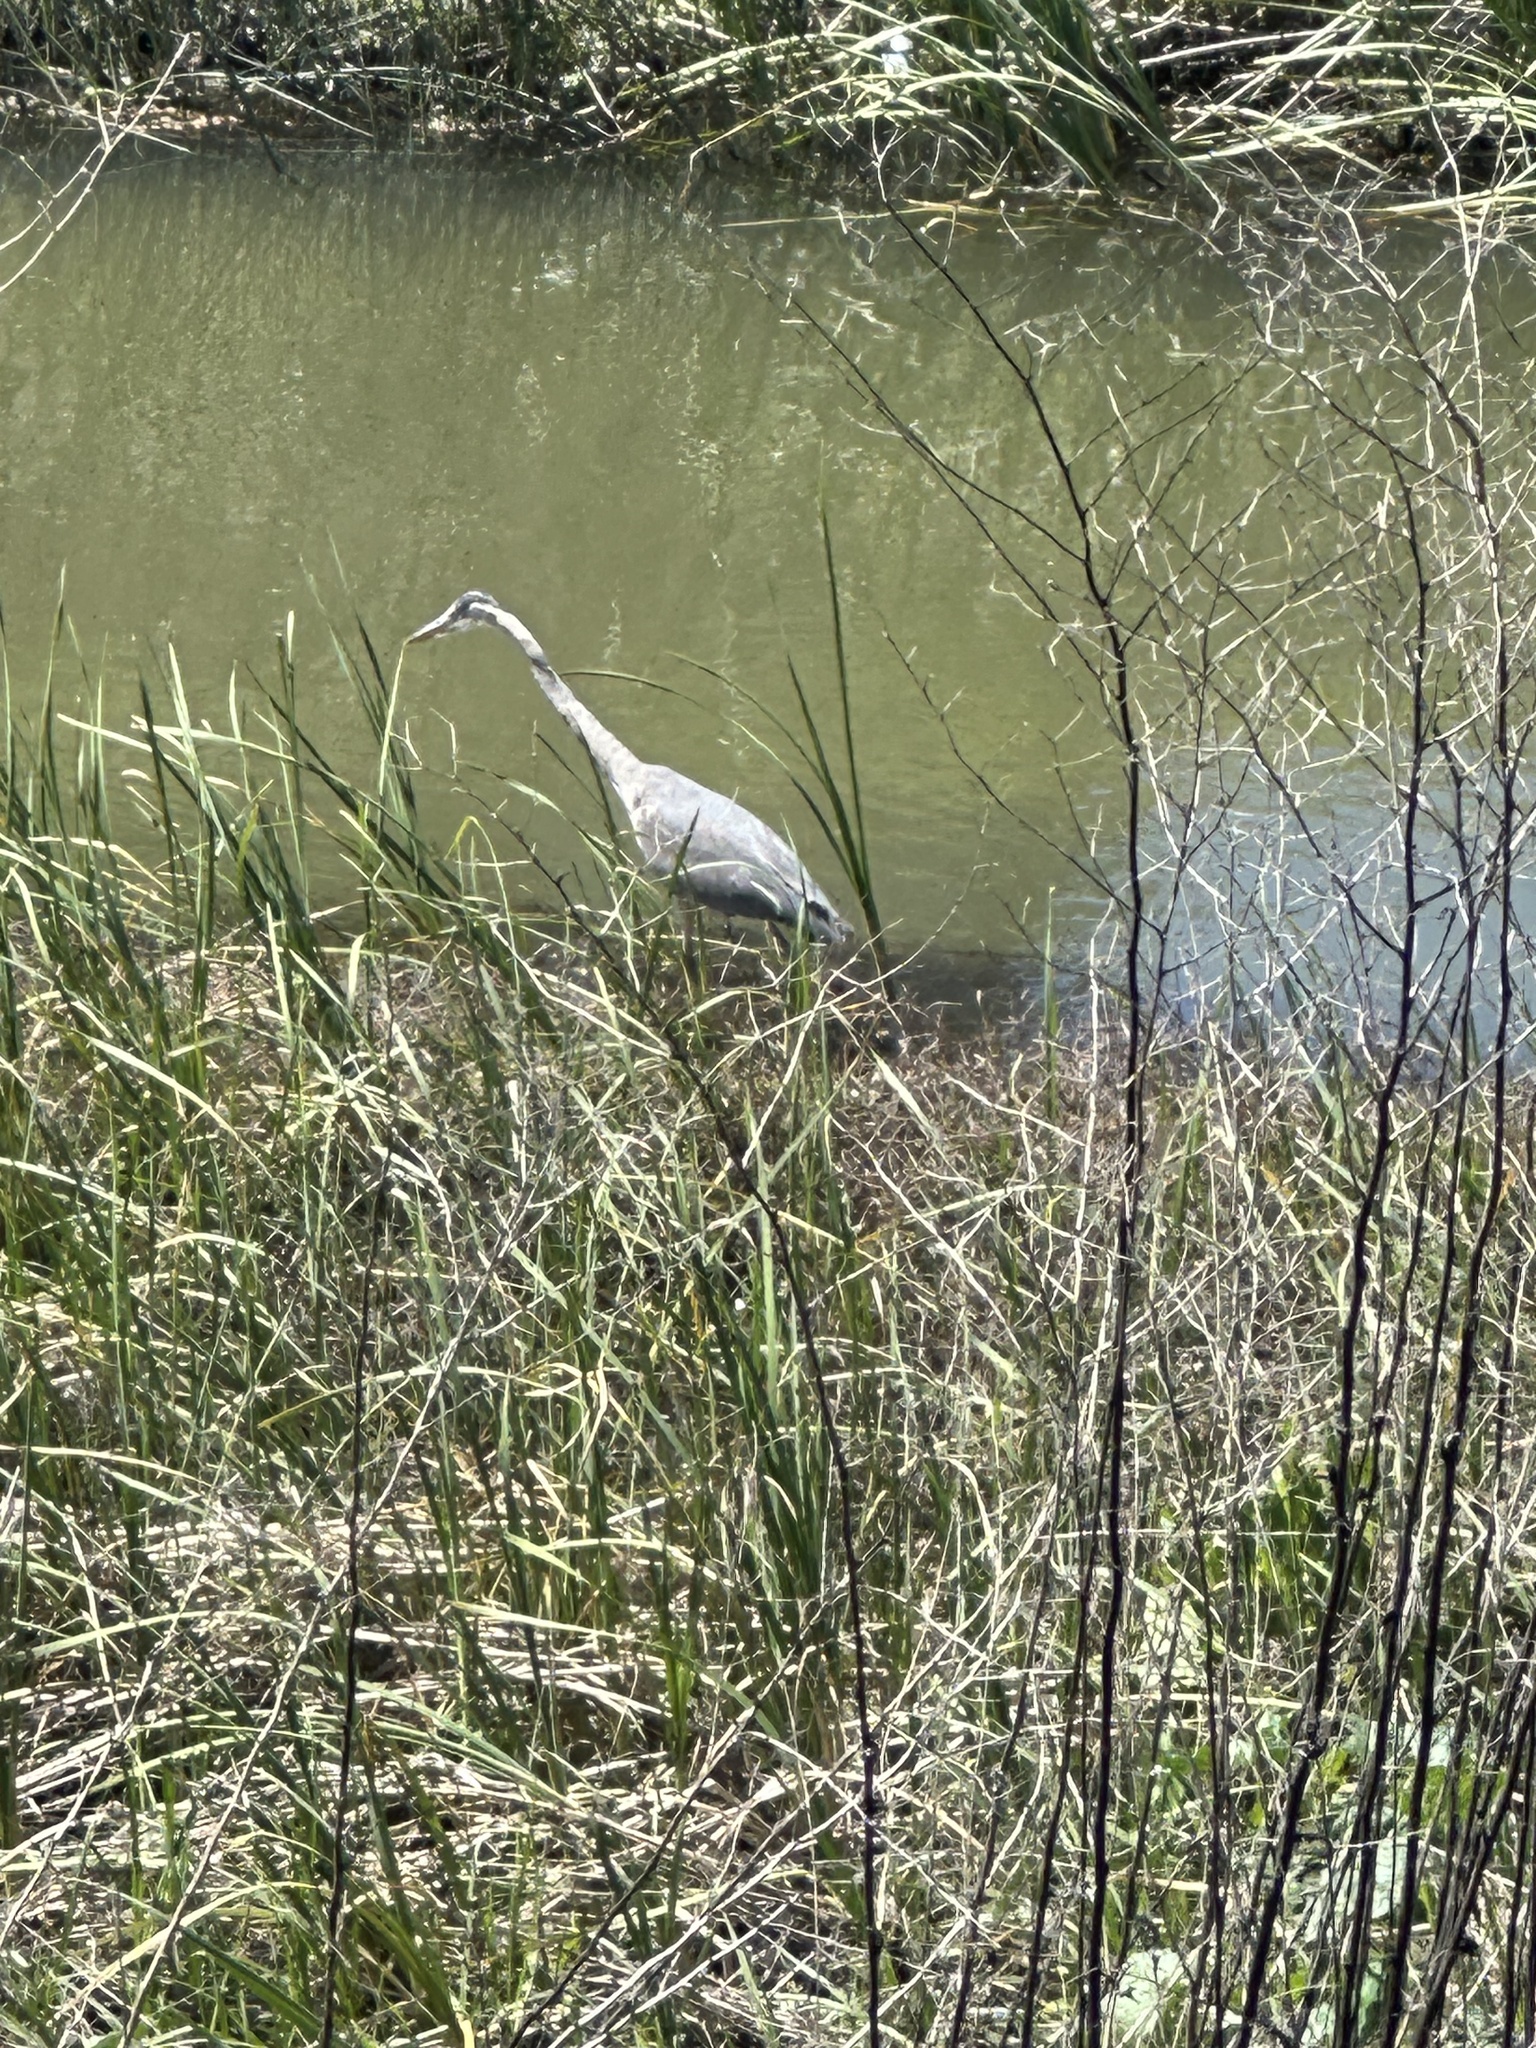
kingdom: Animalia
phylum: Chordata
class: Aves
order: Pelecaniformes
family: Ardeidae
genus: Ardea
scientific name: Ardea herodias
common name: Great blue heron
